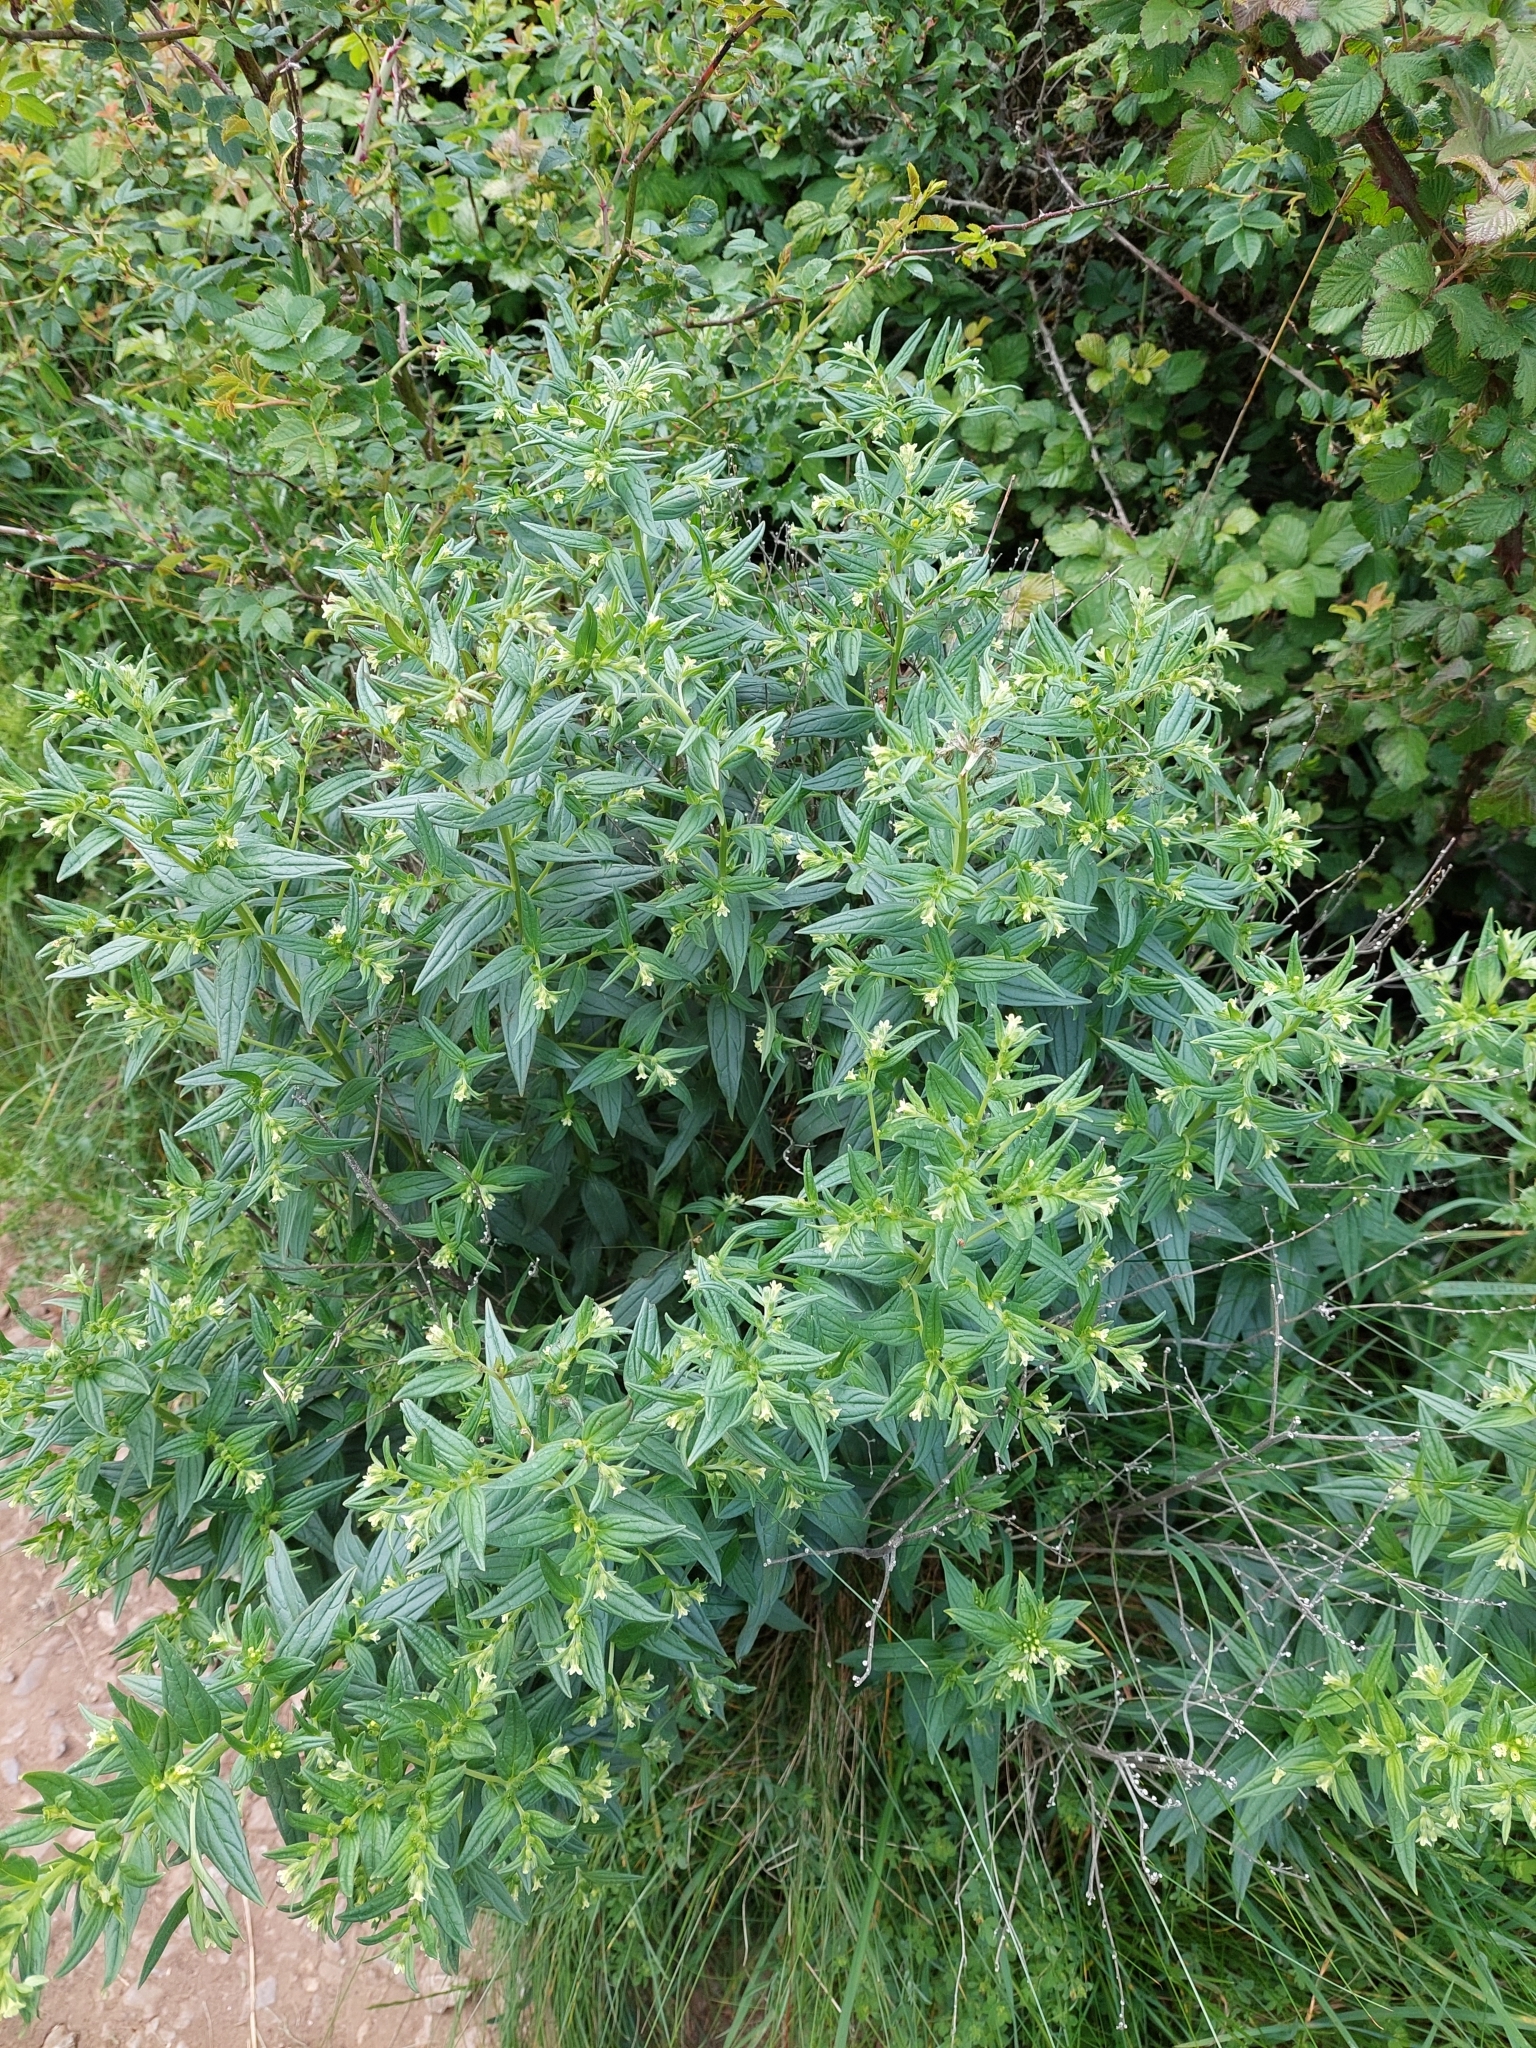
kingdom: Plantae
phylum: Tracheophyta
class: Magnoliopsida
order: Boraginales
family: Boraginaceae
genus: Lithospermum
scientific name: Lithospermum officinale
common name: Common gromwell
